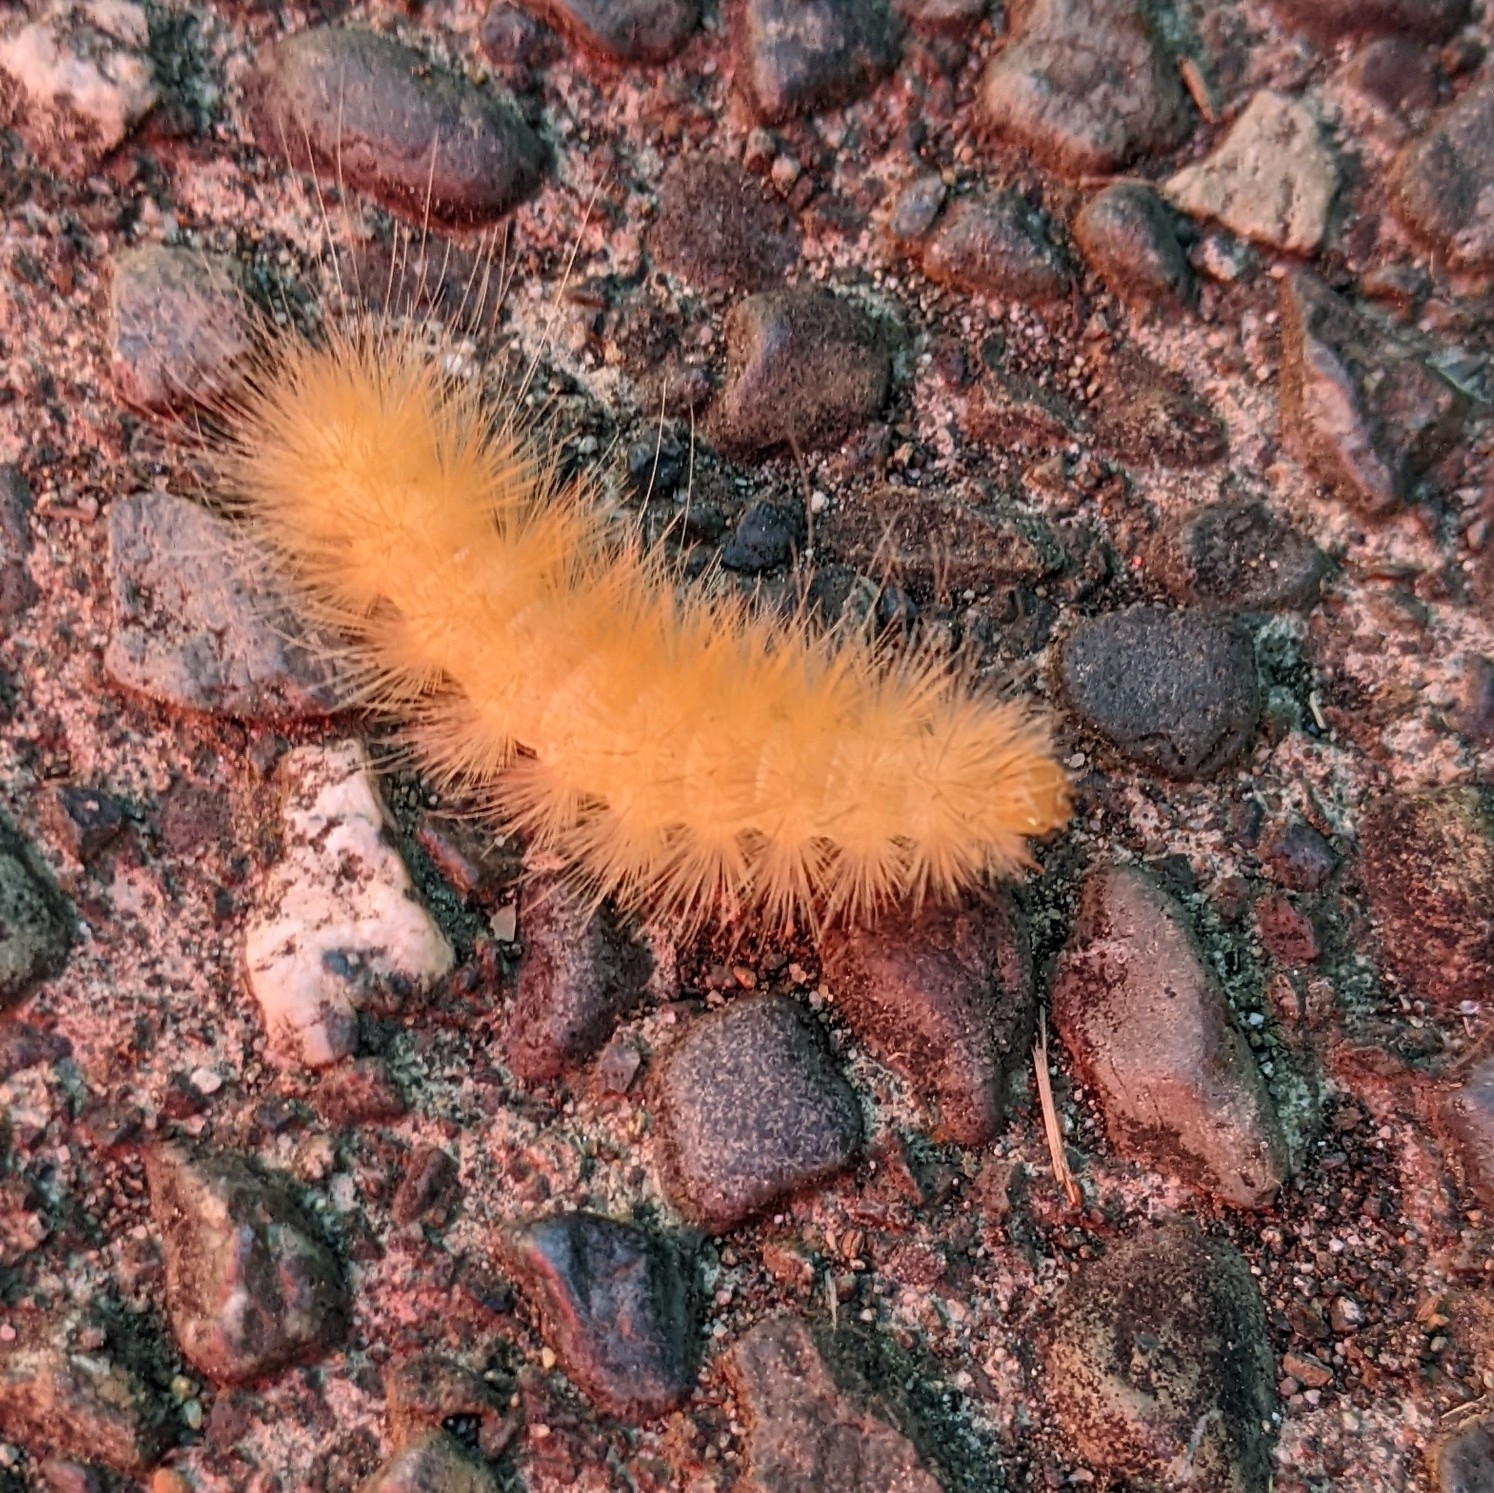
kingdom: Animalia
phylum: Arthropoda
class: Insecta
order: Lepidoptera
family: Erebidae
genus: Spilosoma
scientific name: Spilosoma virginica
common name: Virginia tiger moth
